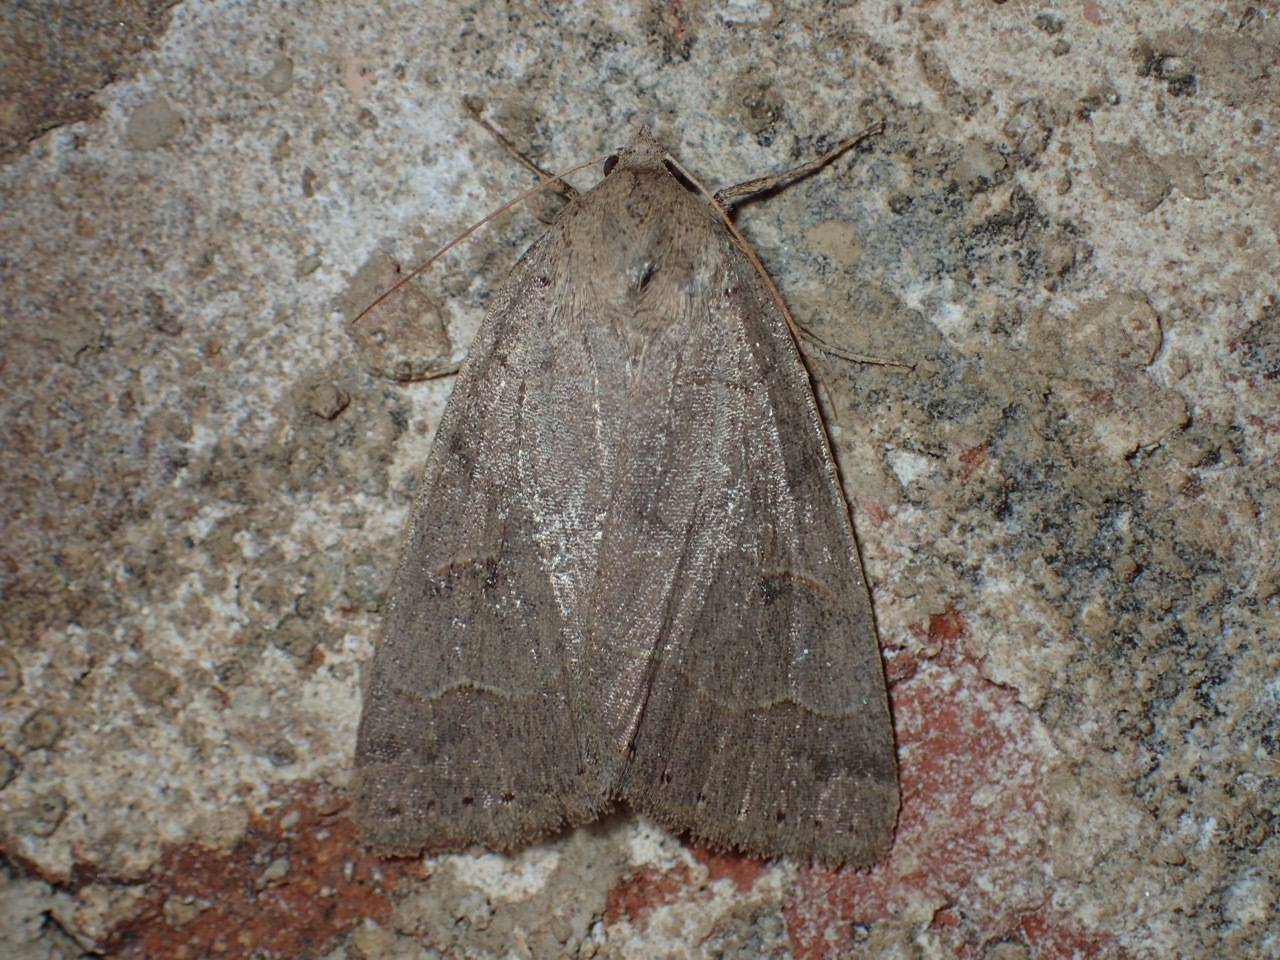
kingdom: Animalia
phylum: Arthropoda
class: Insecta
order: Lepidoptera
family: Erebidae
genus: Phoberia
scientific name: Phoberia atomaris
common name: Common oak moth
